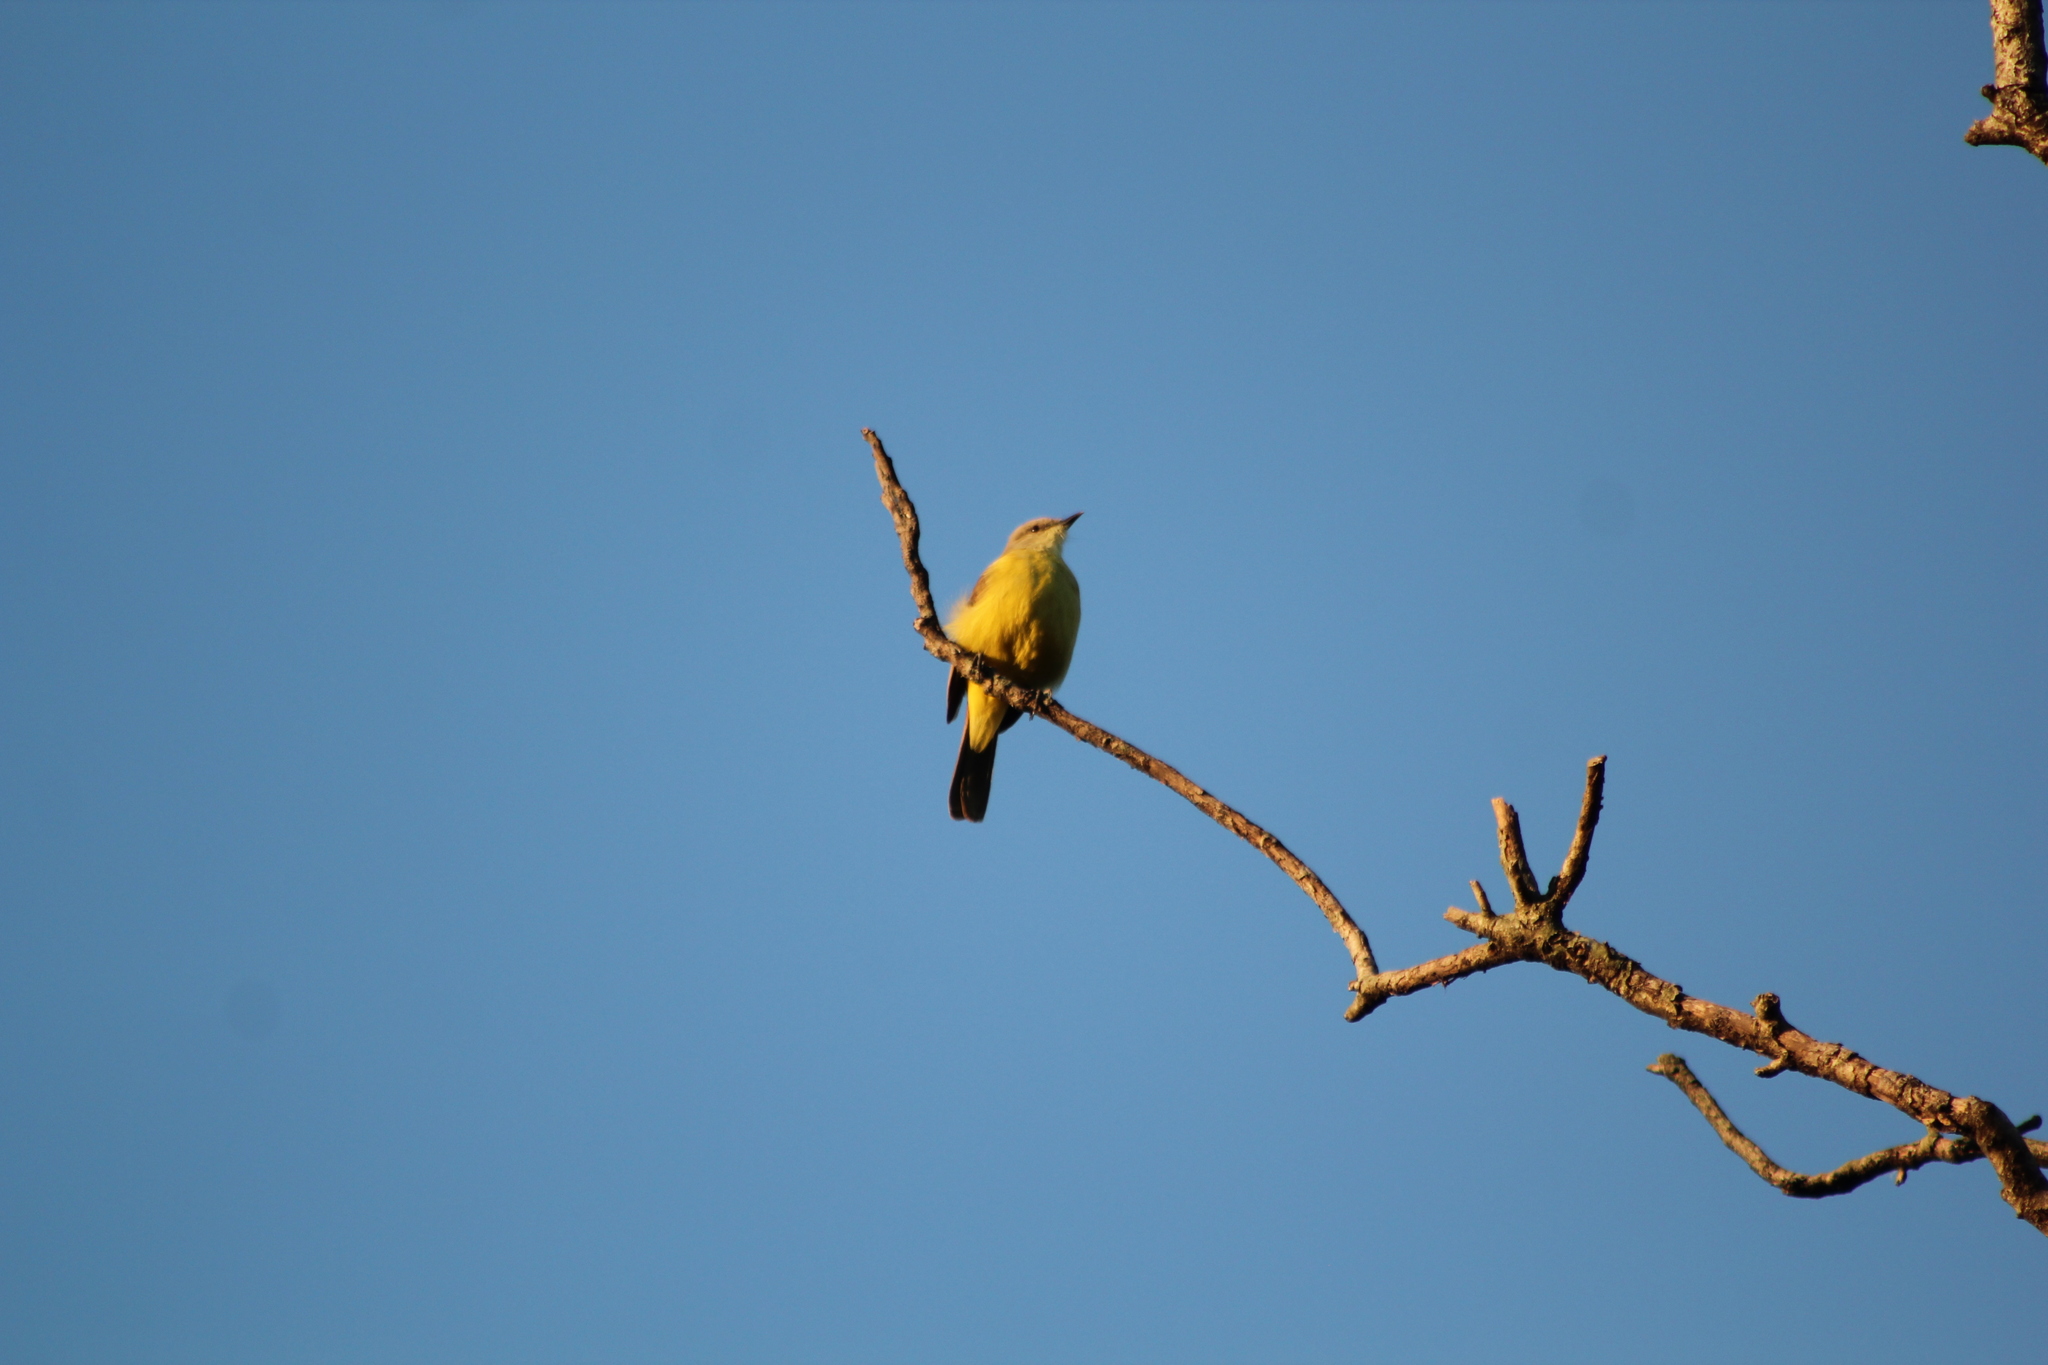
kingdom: Animalia
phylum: Chordata
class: Aves
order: Passeriformes
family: Tyrannidae
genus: Machetornis
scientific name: Machetornis rixosa
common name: Cattle tyrant
